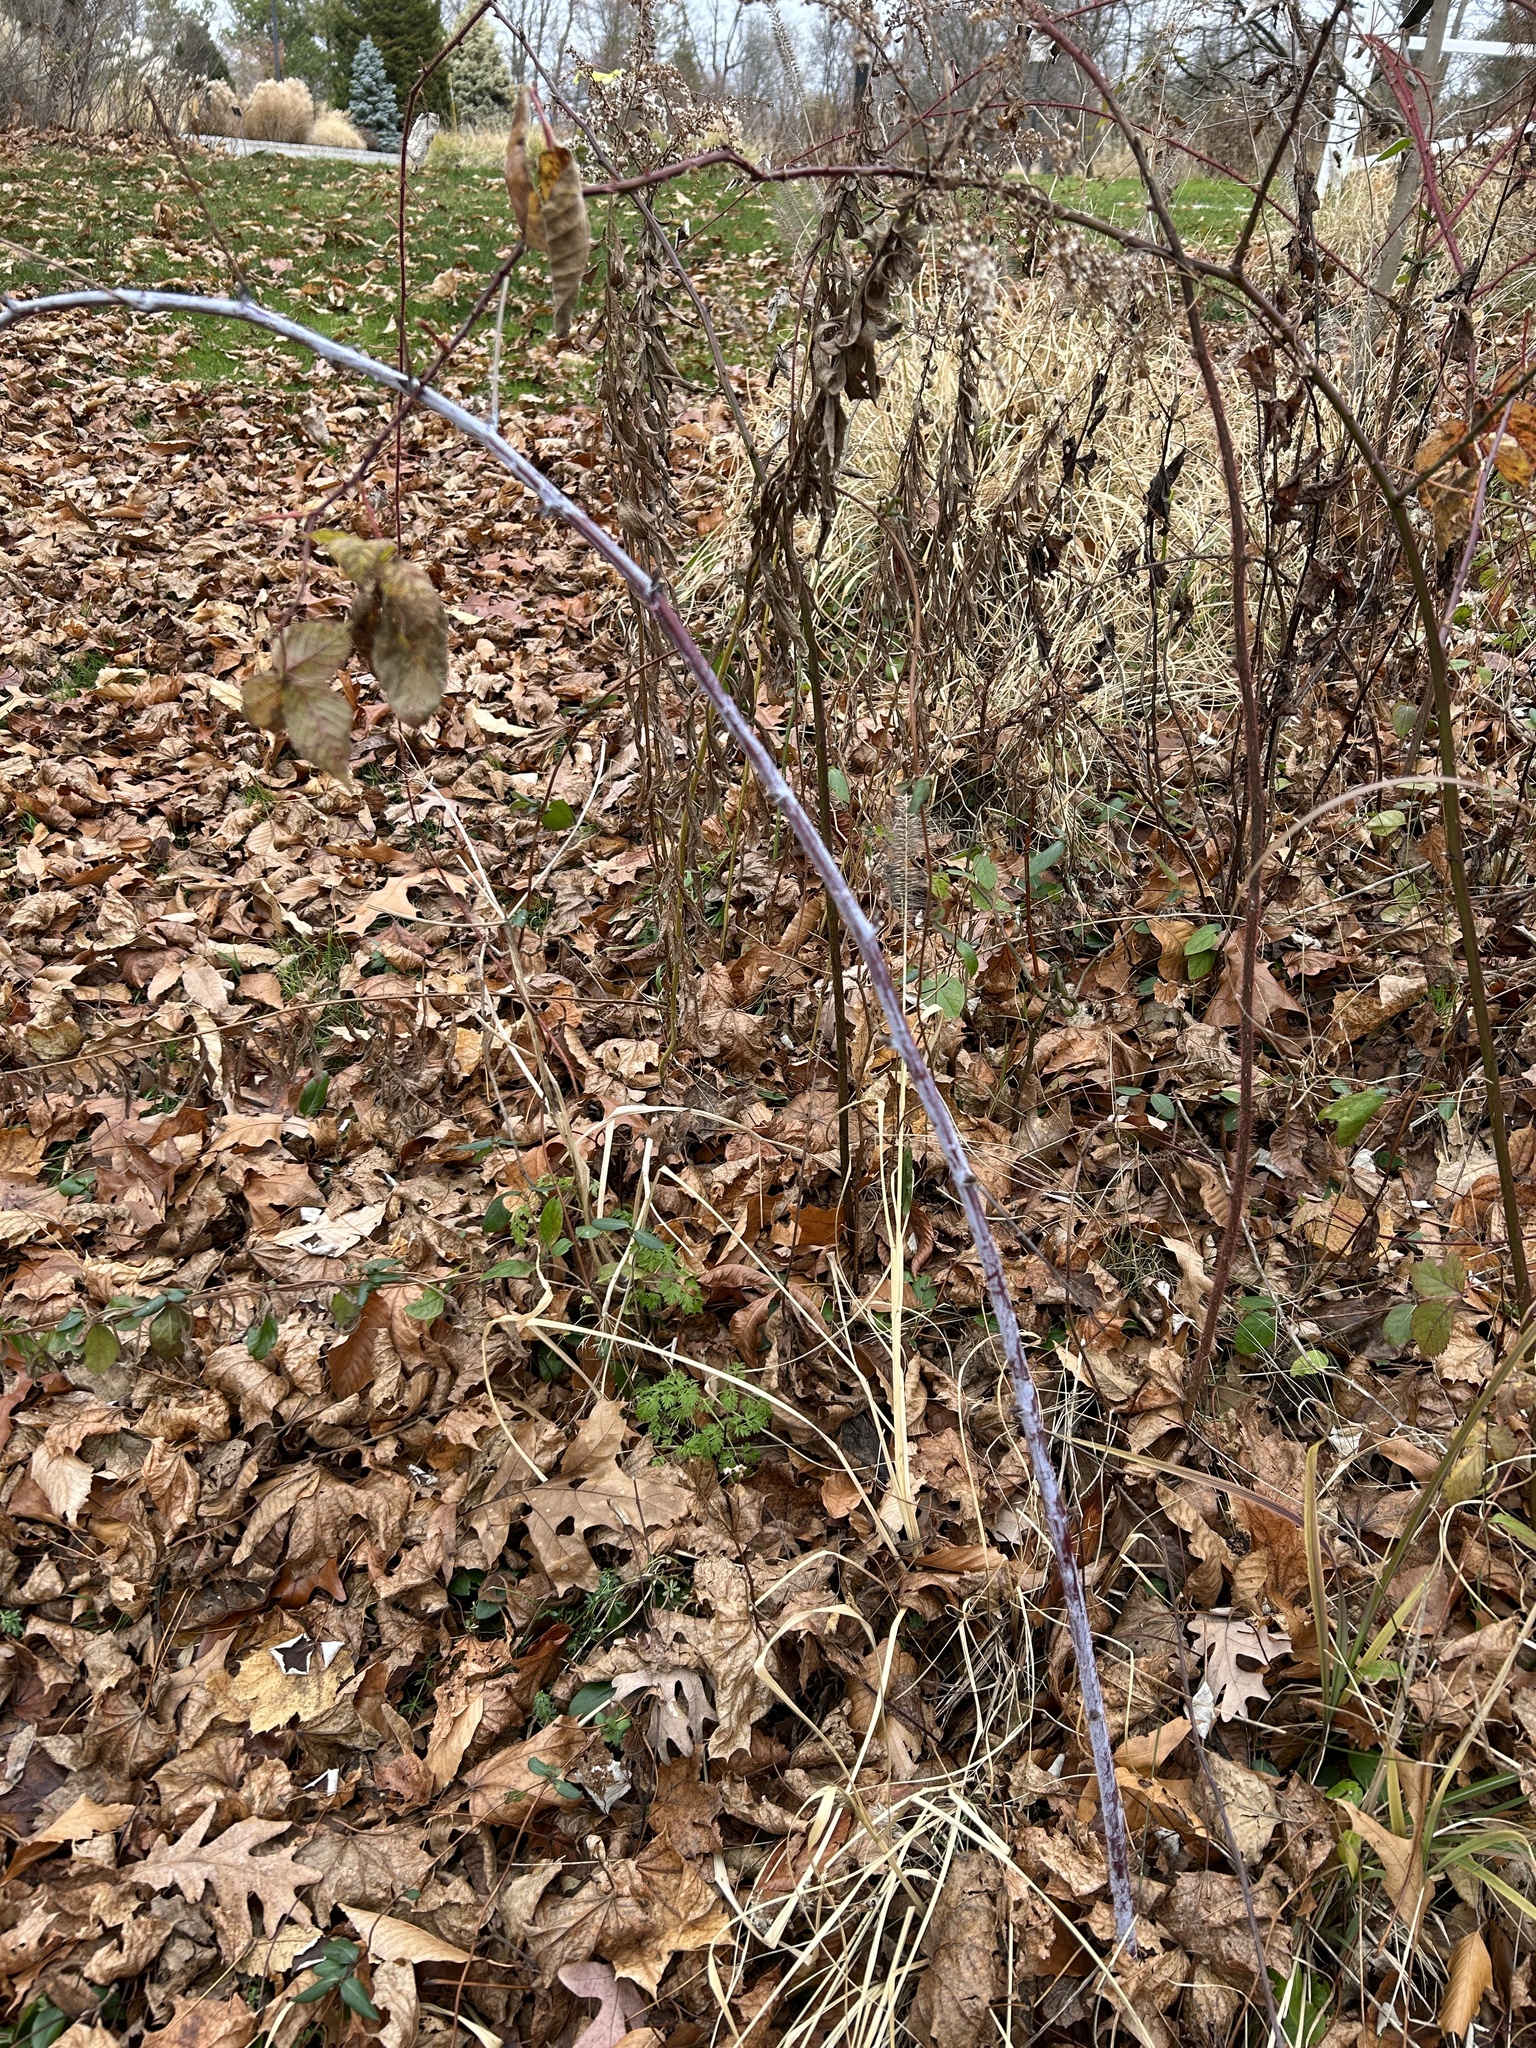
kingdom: Plantae
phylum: Tracheophyta
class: Magnoliopsida
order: Rosales
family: Rosaceae
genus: Rubus
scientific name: Rubus occidentalis
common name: Black raspberry
